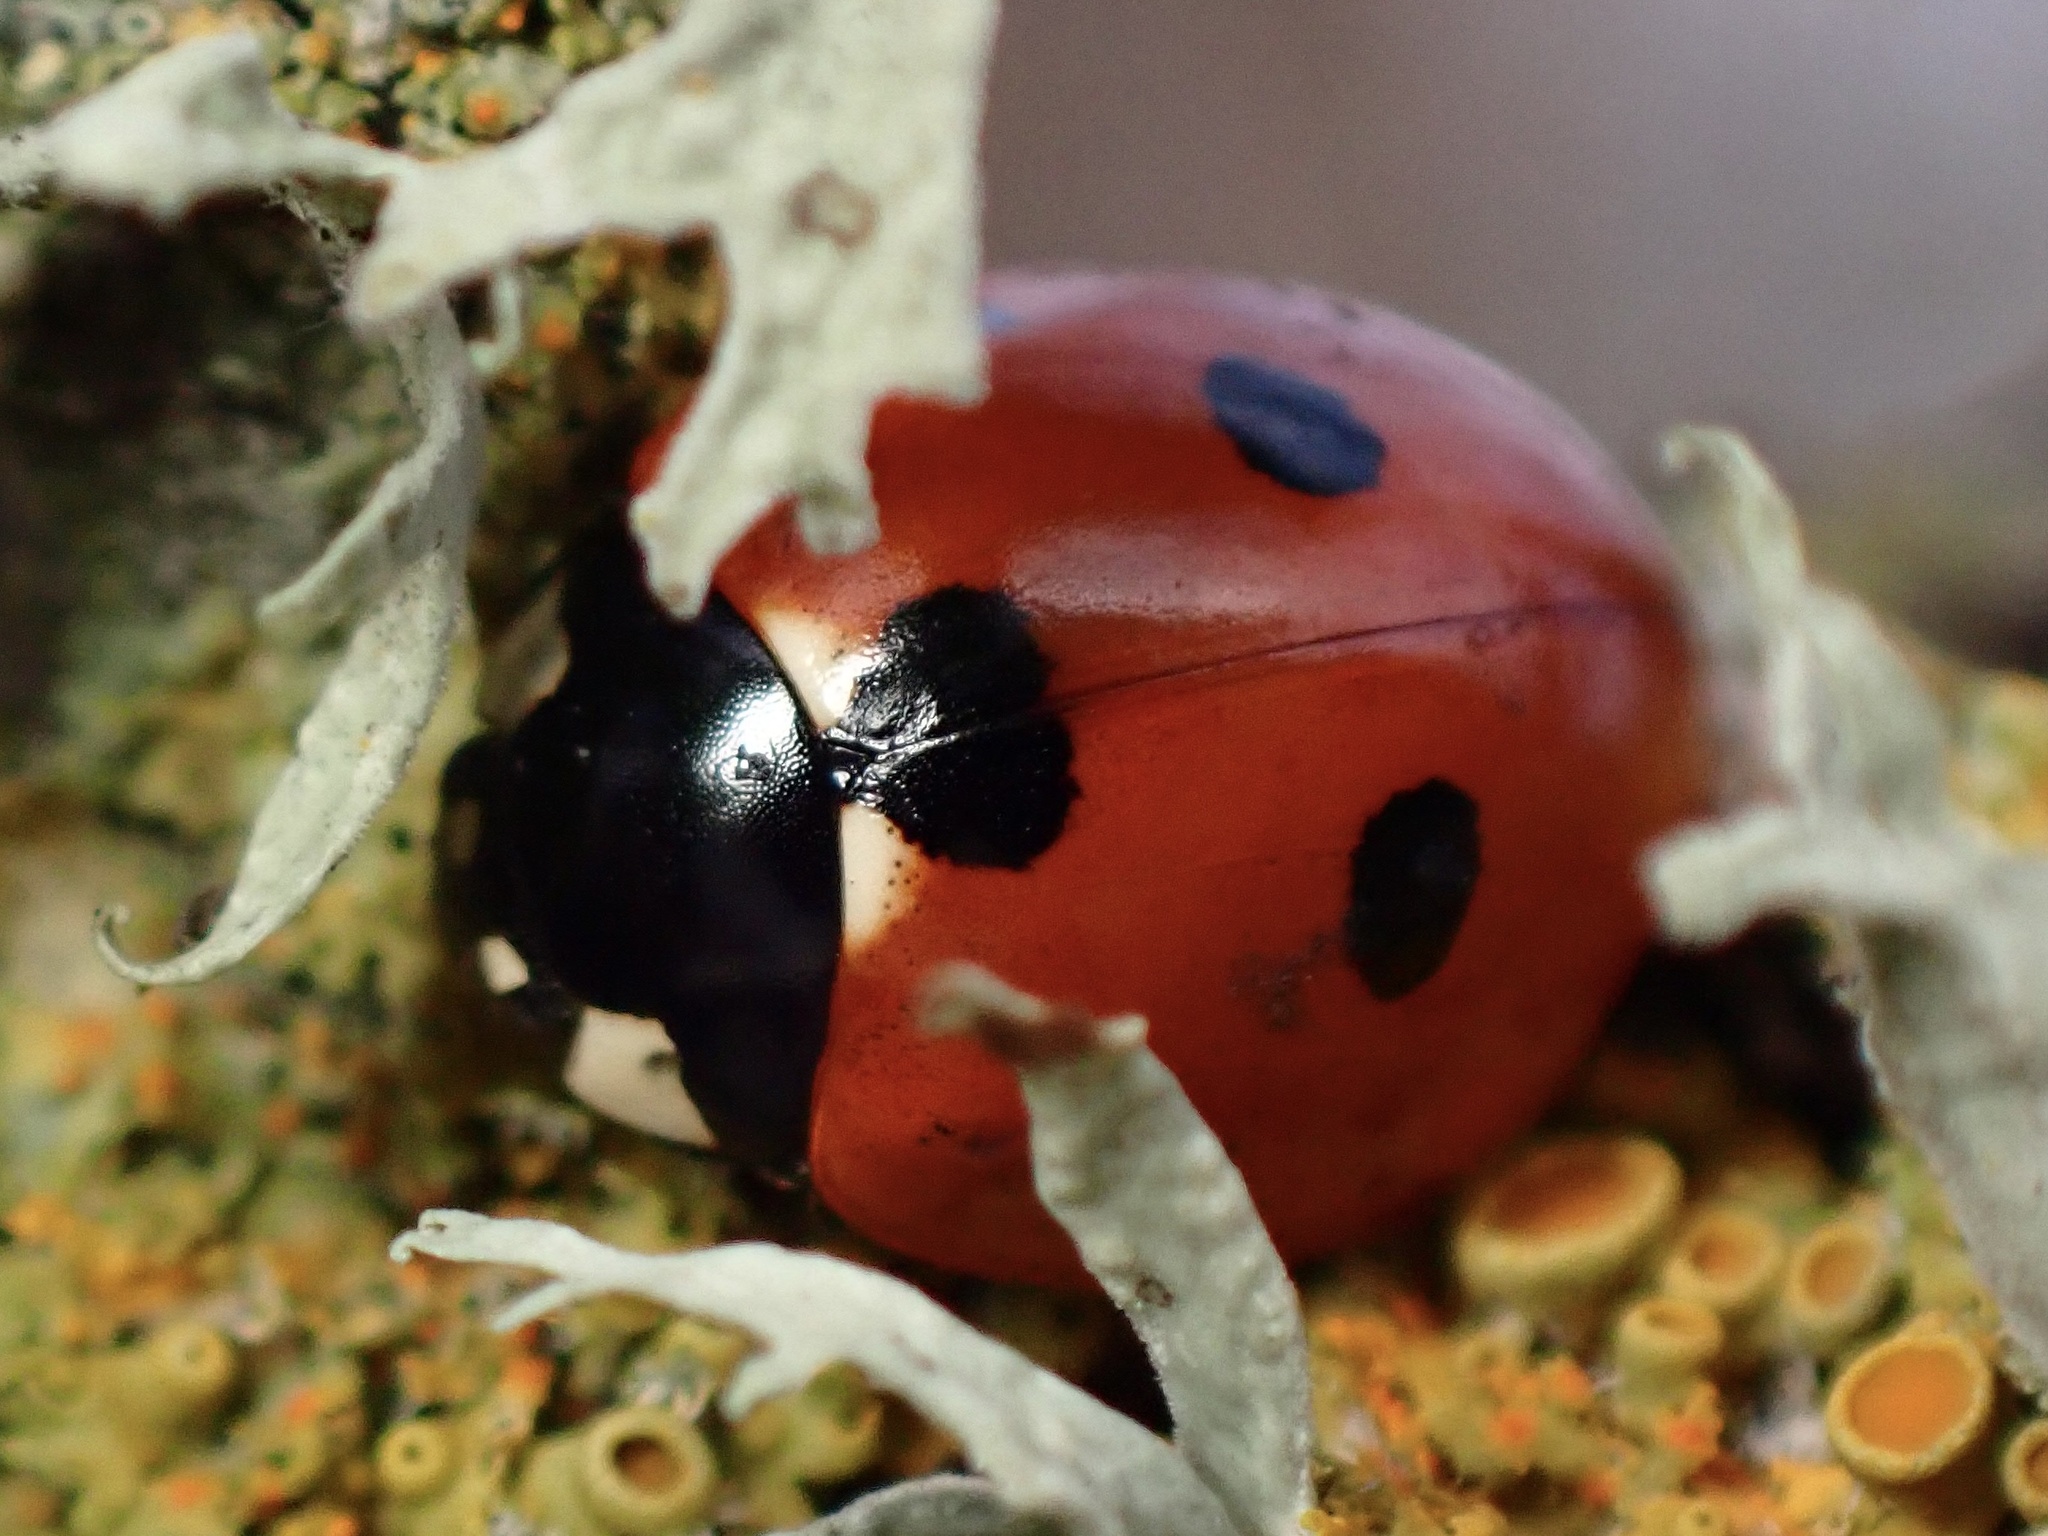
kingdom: Animalia
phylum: Arthropoda
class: Insecta
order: Coleoptera
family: Coccinellidae
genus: Coccinella
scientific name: Coccinella septempunctata
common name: Sevenspotted lady beetle
